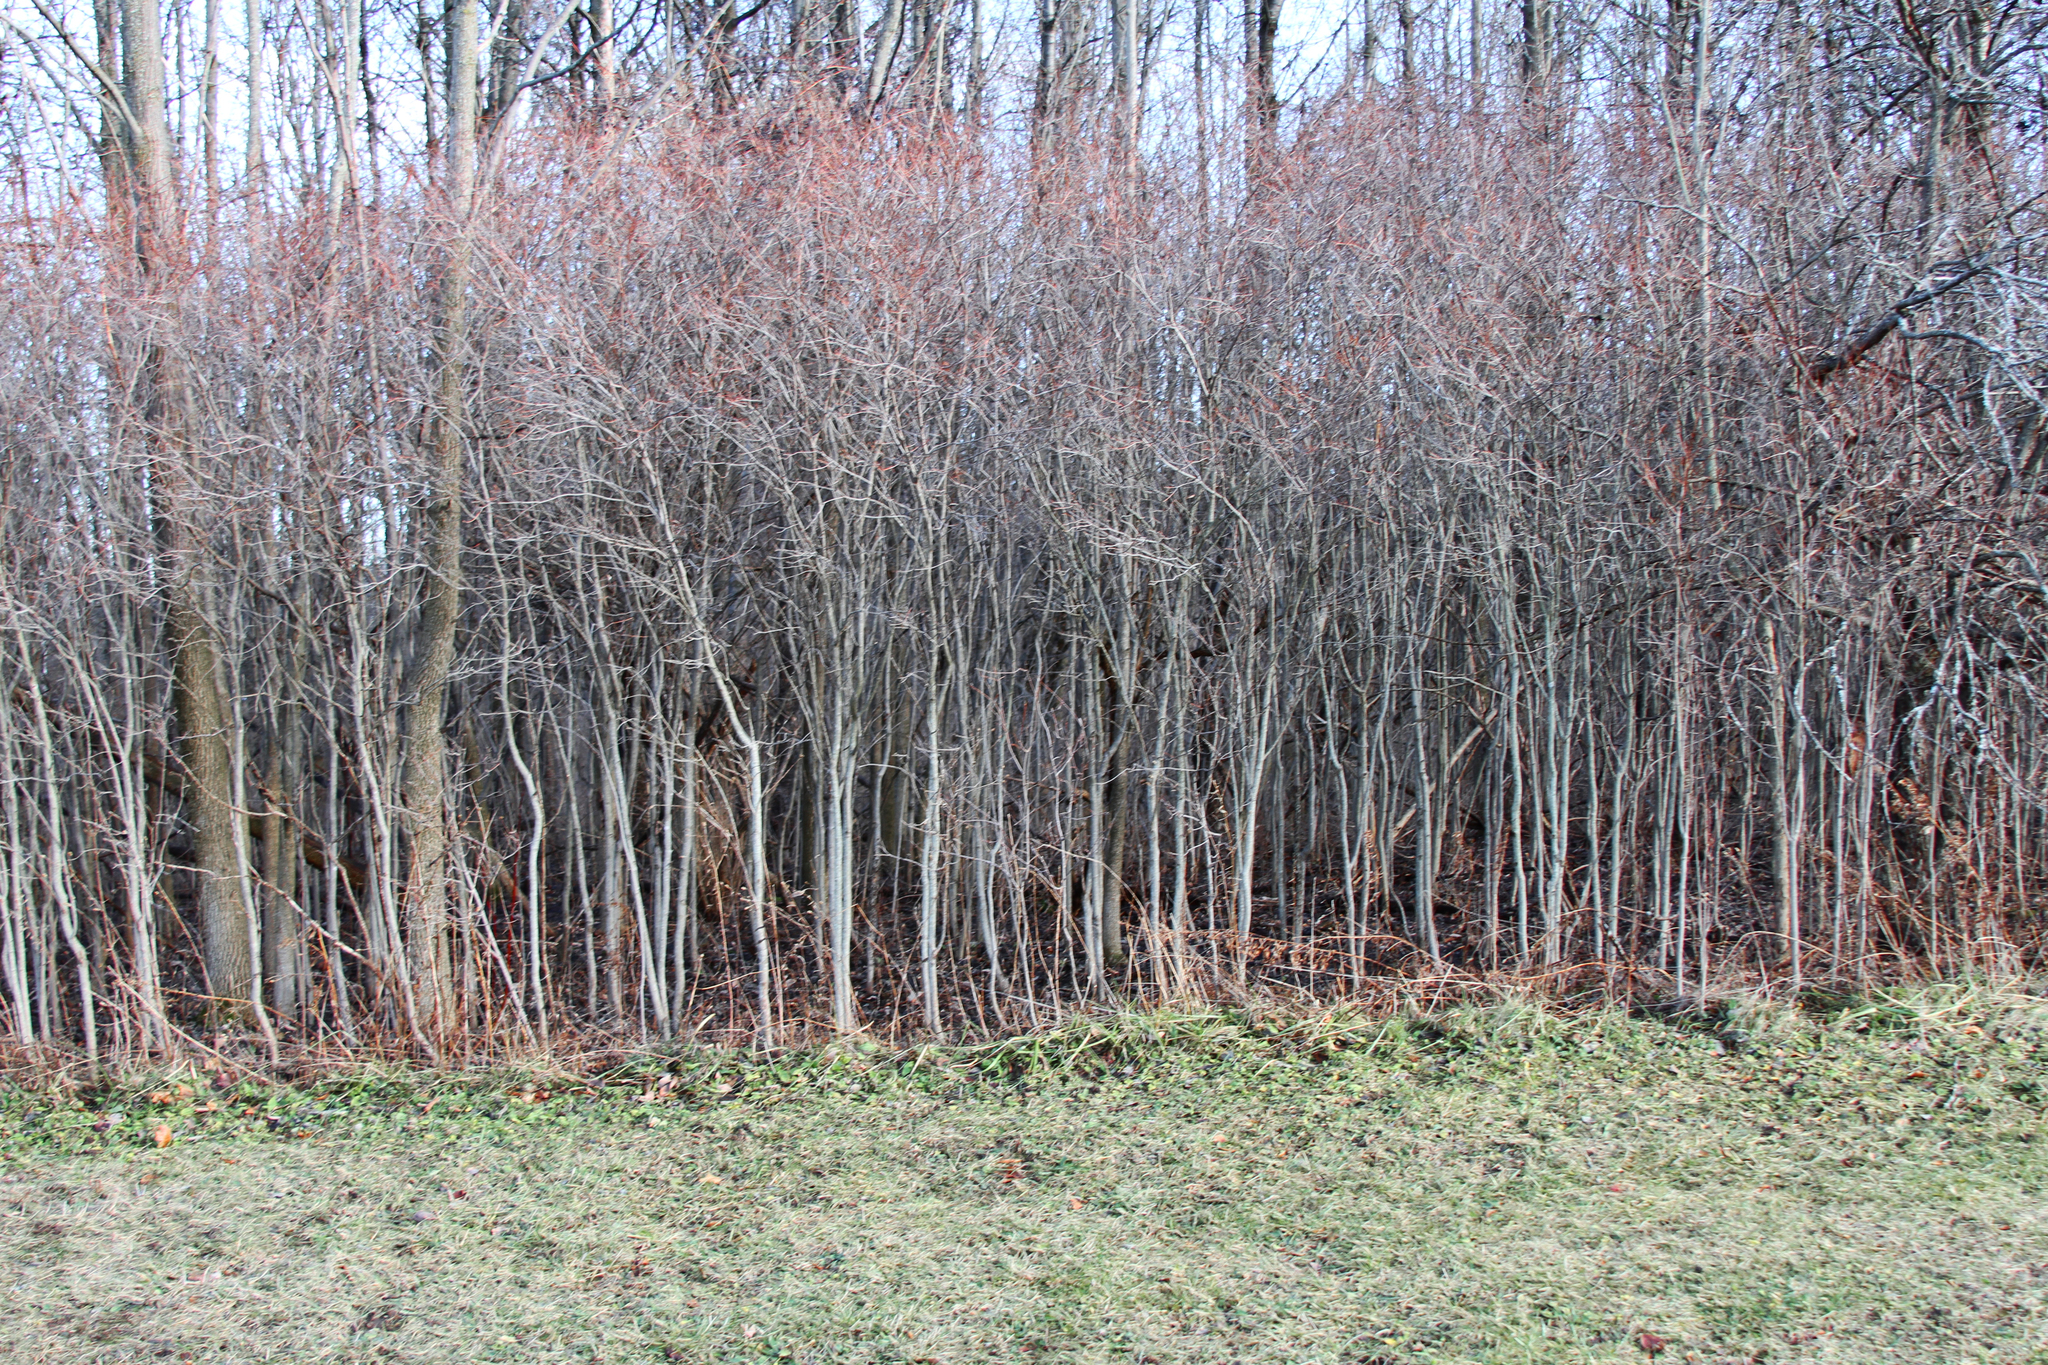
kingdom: Plantae
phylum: Tracheophyta
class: Magnoliopsida
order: Cornales
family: Cornaceae
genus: Cornus
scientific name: Cornus racemosa
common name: Panicled dogwood
